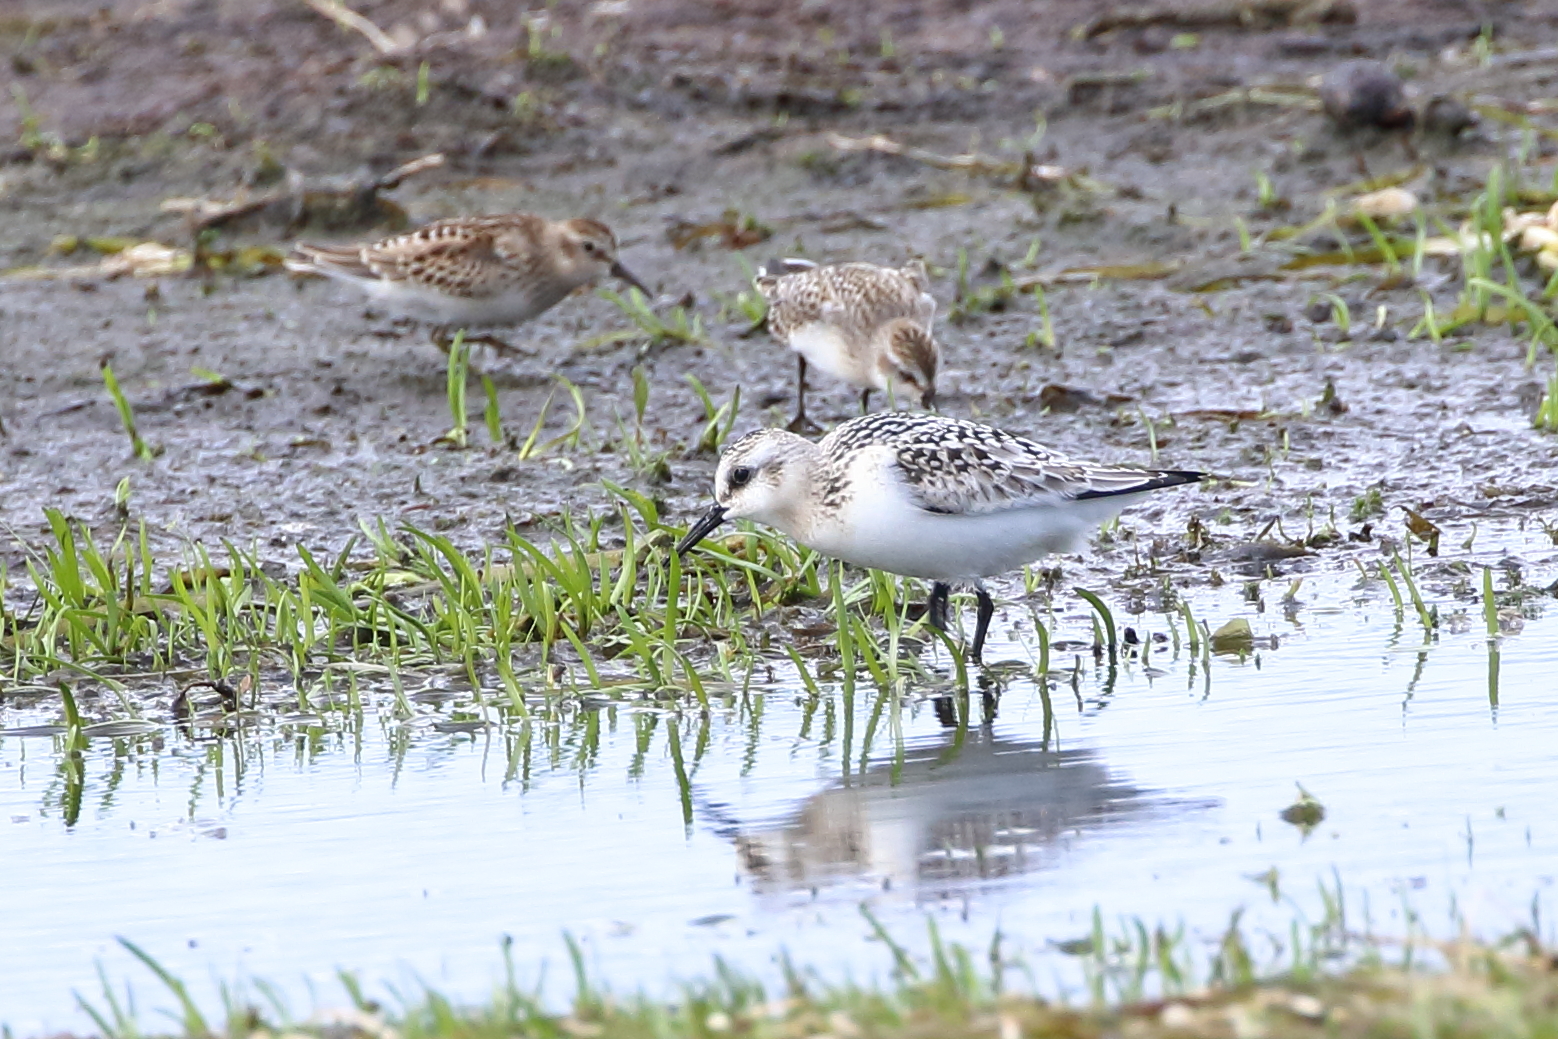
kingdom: Animalia
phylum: Chordata
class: Aves
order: Charadriiformes
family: Scolopacidae
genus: Calidris
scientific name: Calidris alba
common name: Sanderling
